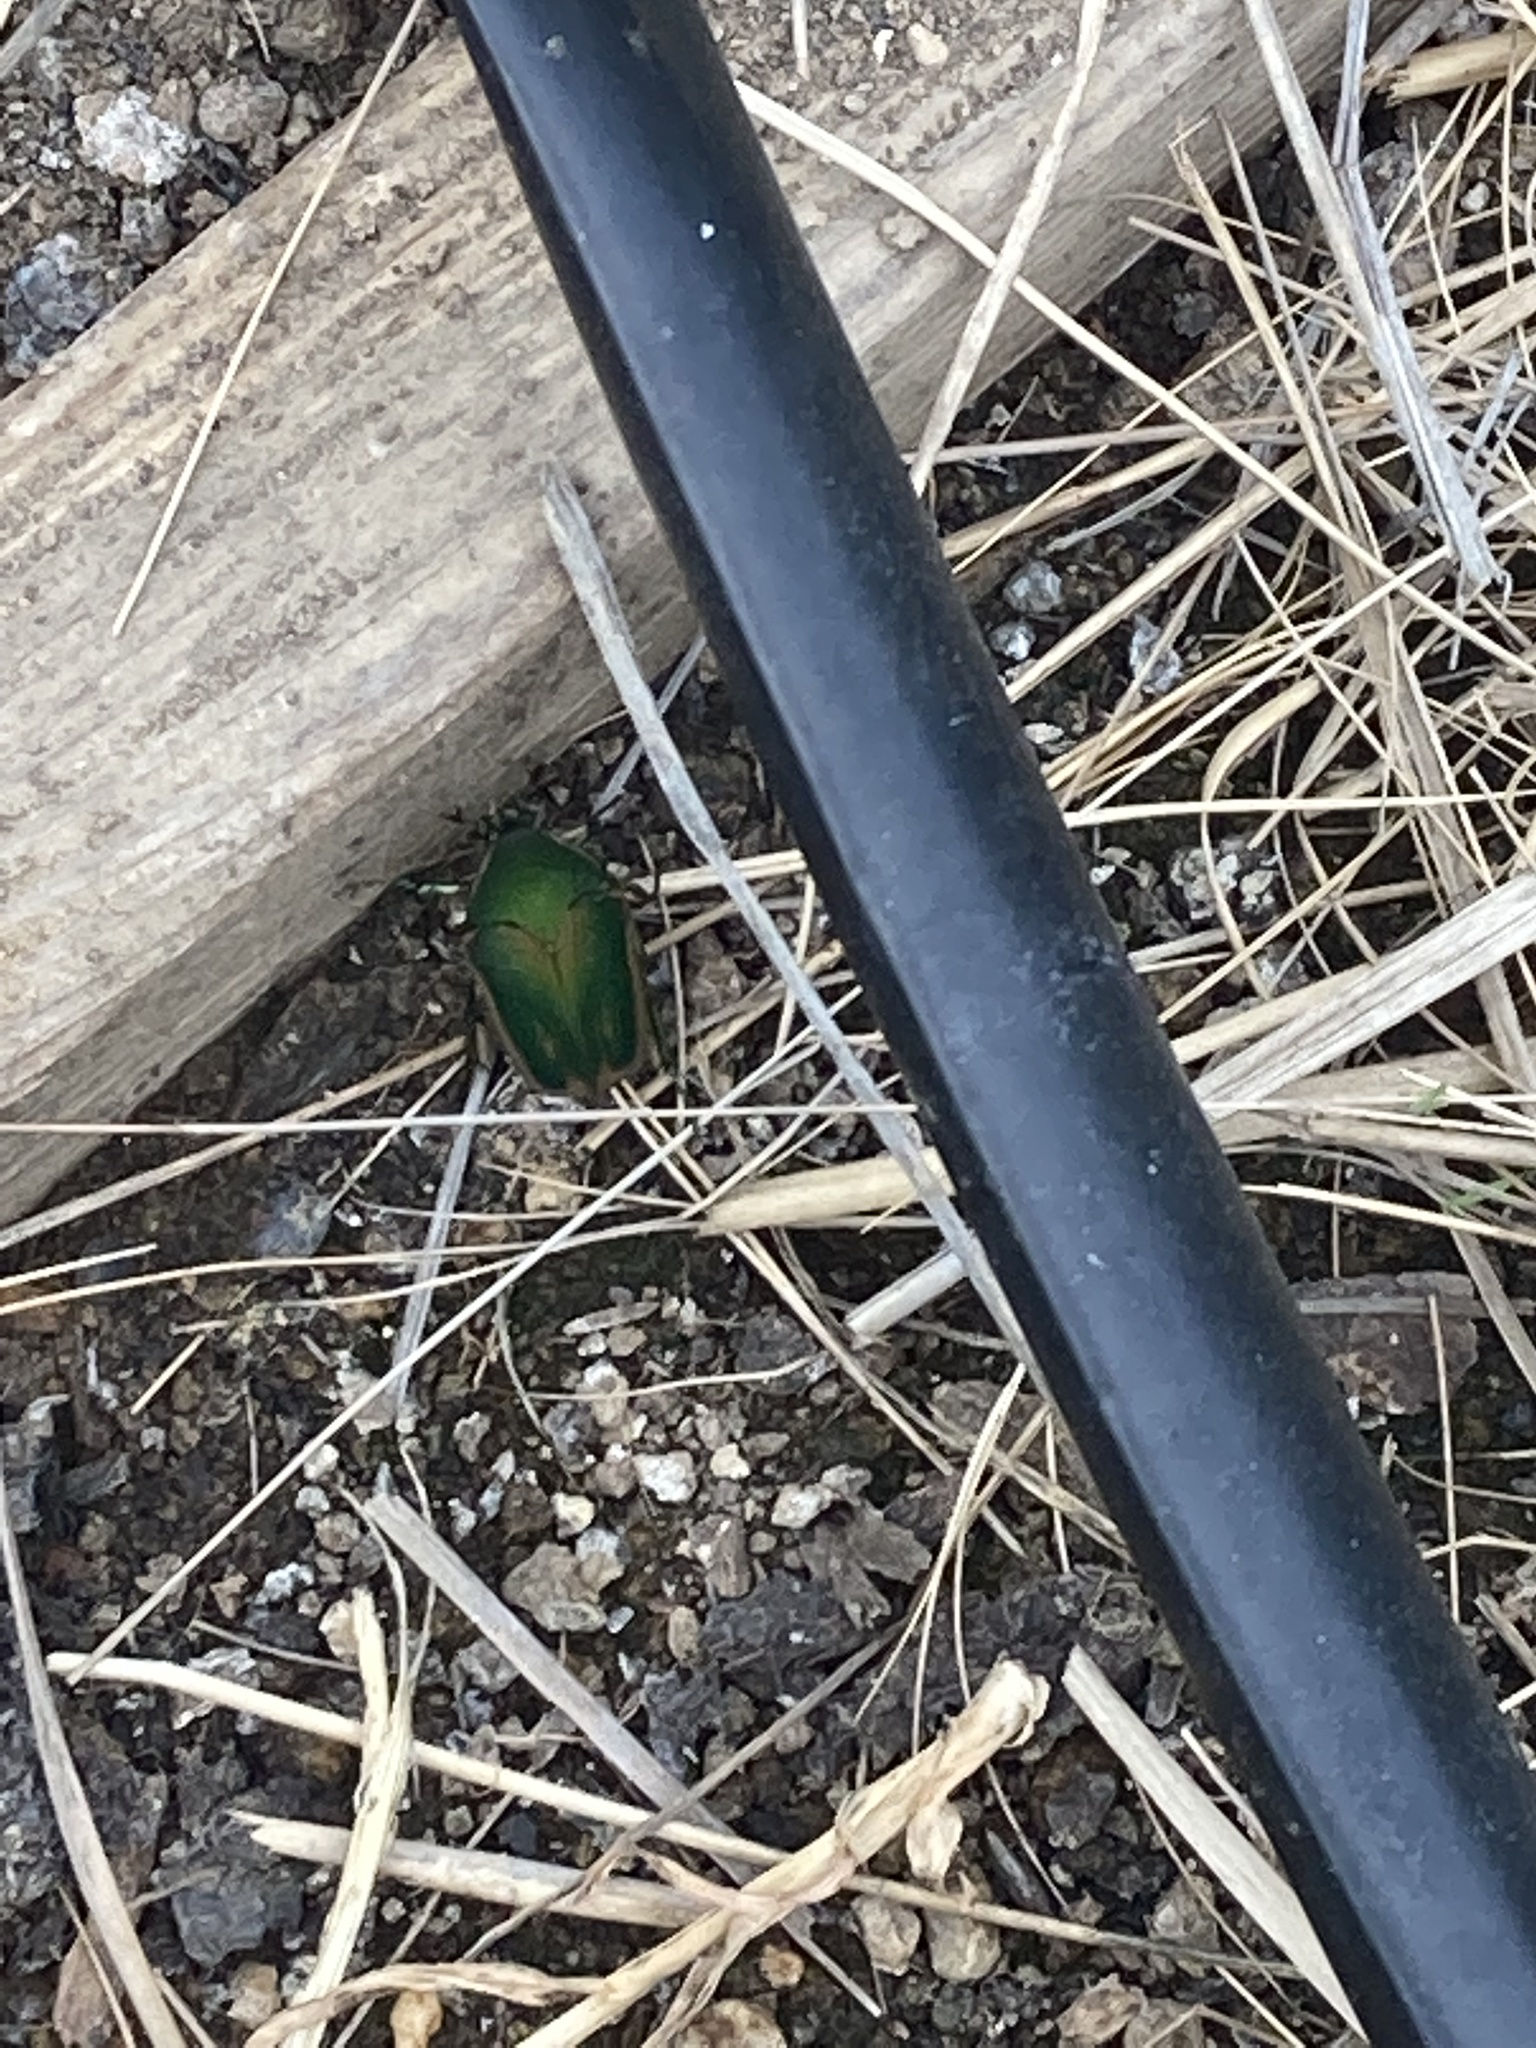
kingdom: Animalia
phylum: Arthropoda
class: Insecta
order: Coleoptera
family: Scarabaeidae
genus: Cotinis
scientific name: Cotinis nitida
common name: Common green june beetle
